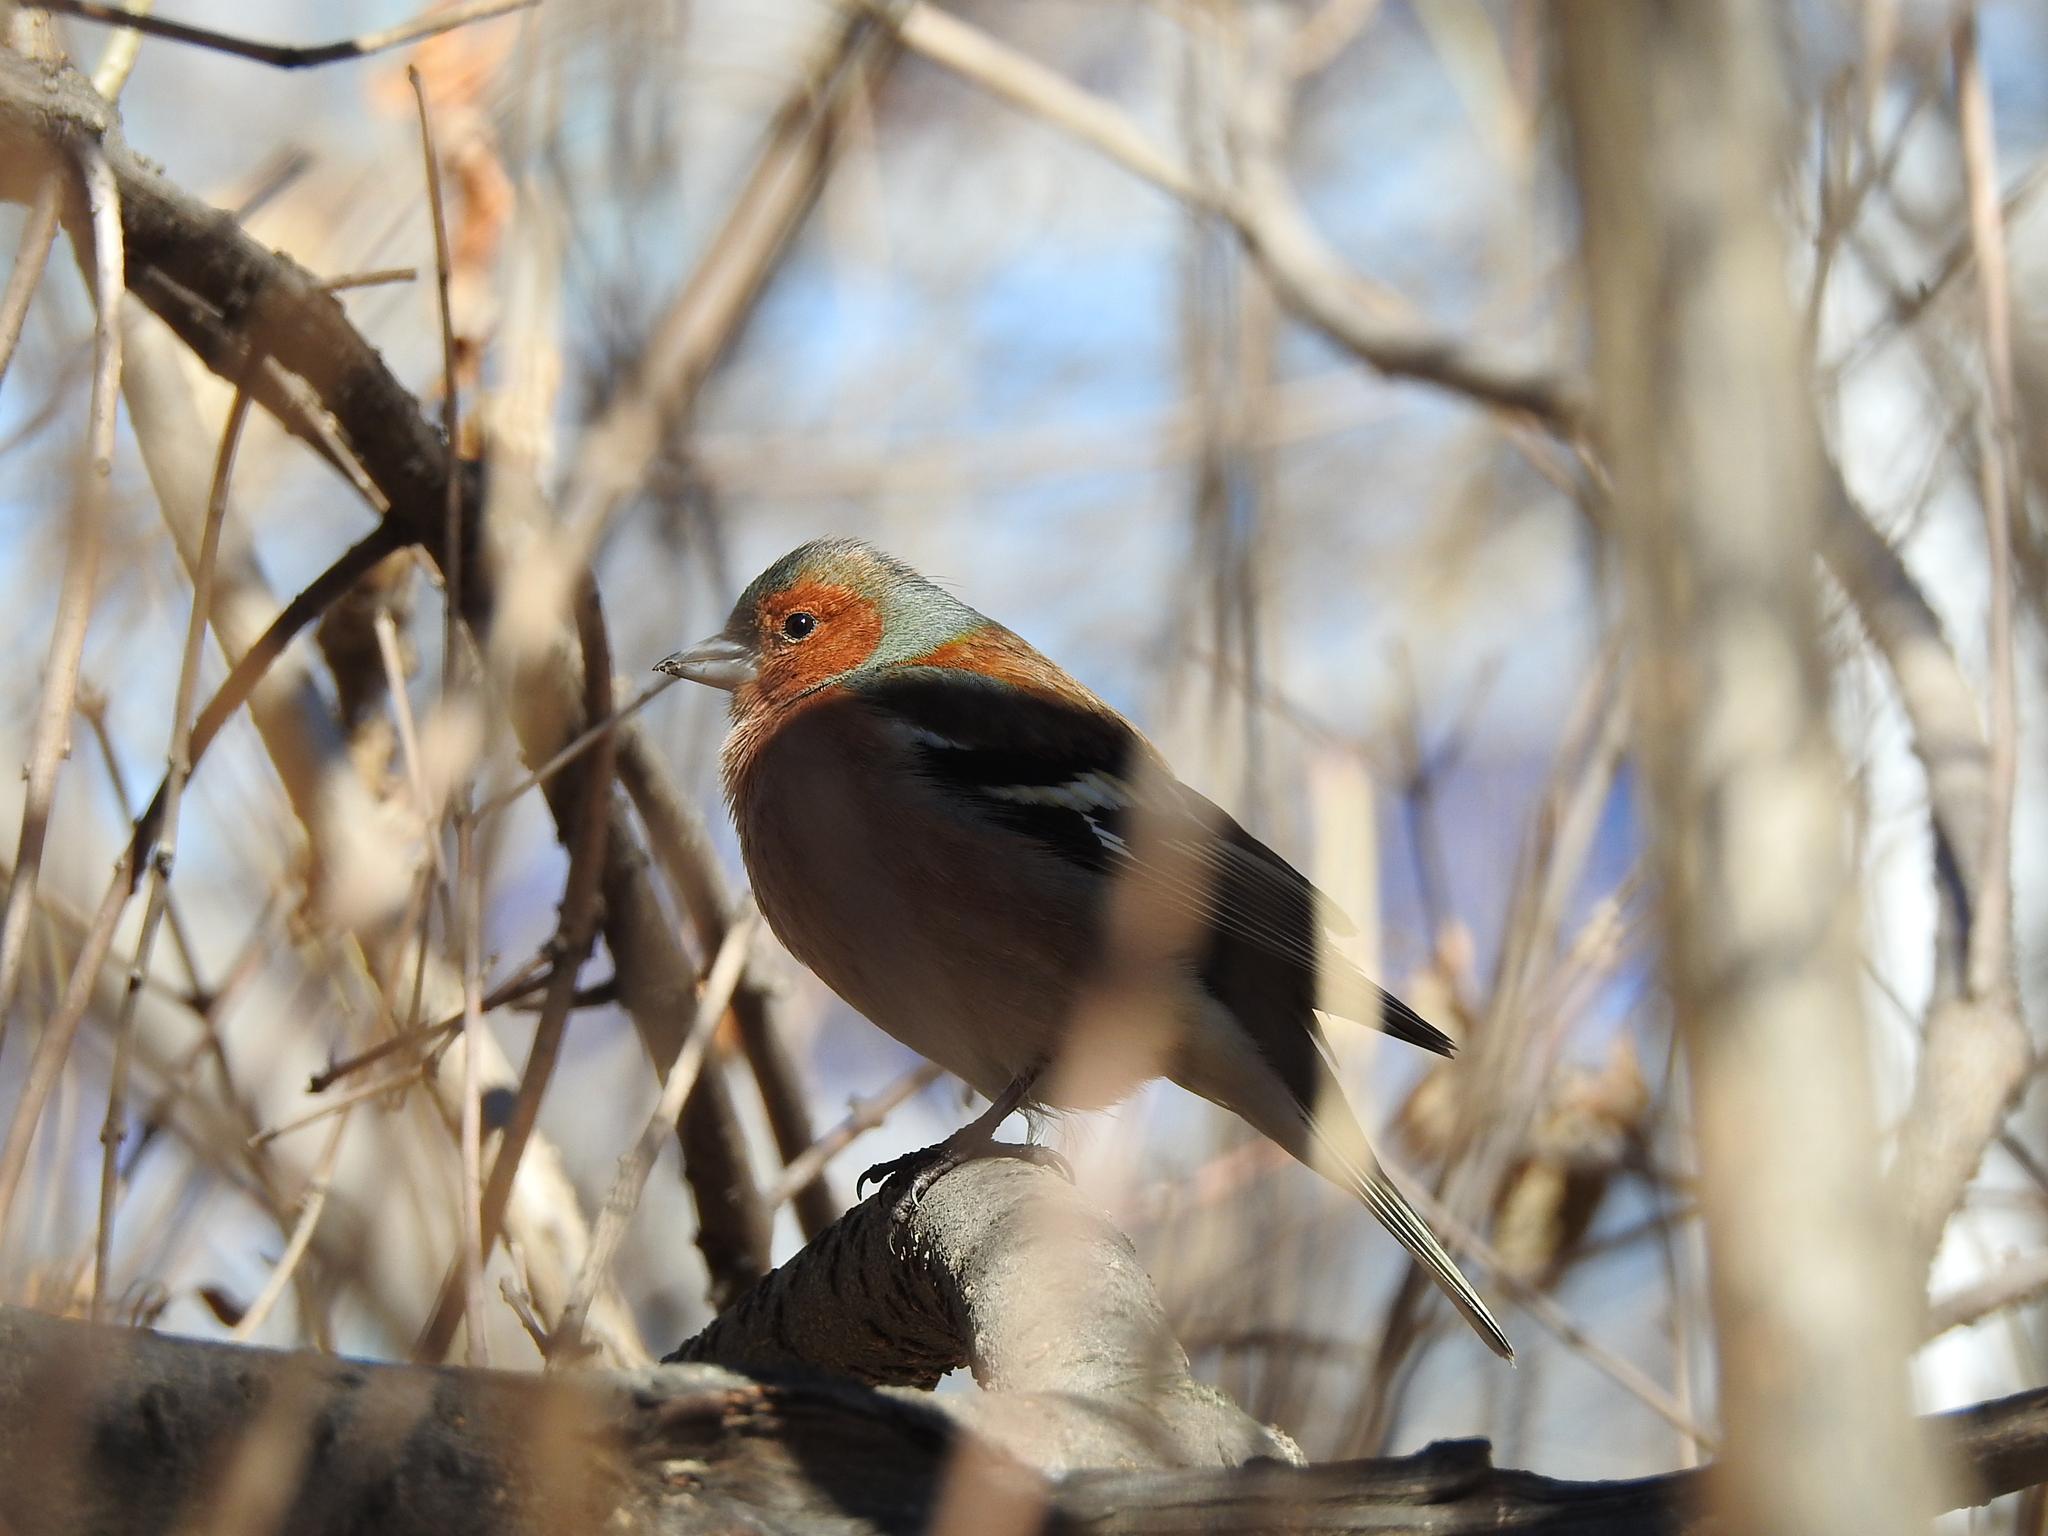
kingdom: Animalia
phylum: Chordata
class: Aves
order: Passeriformes
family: Fringillidae
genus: Fringilla
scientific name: Fringilla coelebs
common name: Common chaffinch
